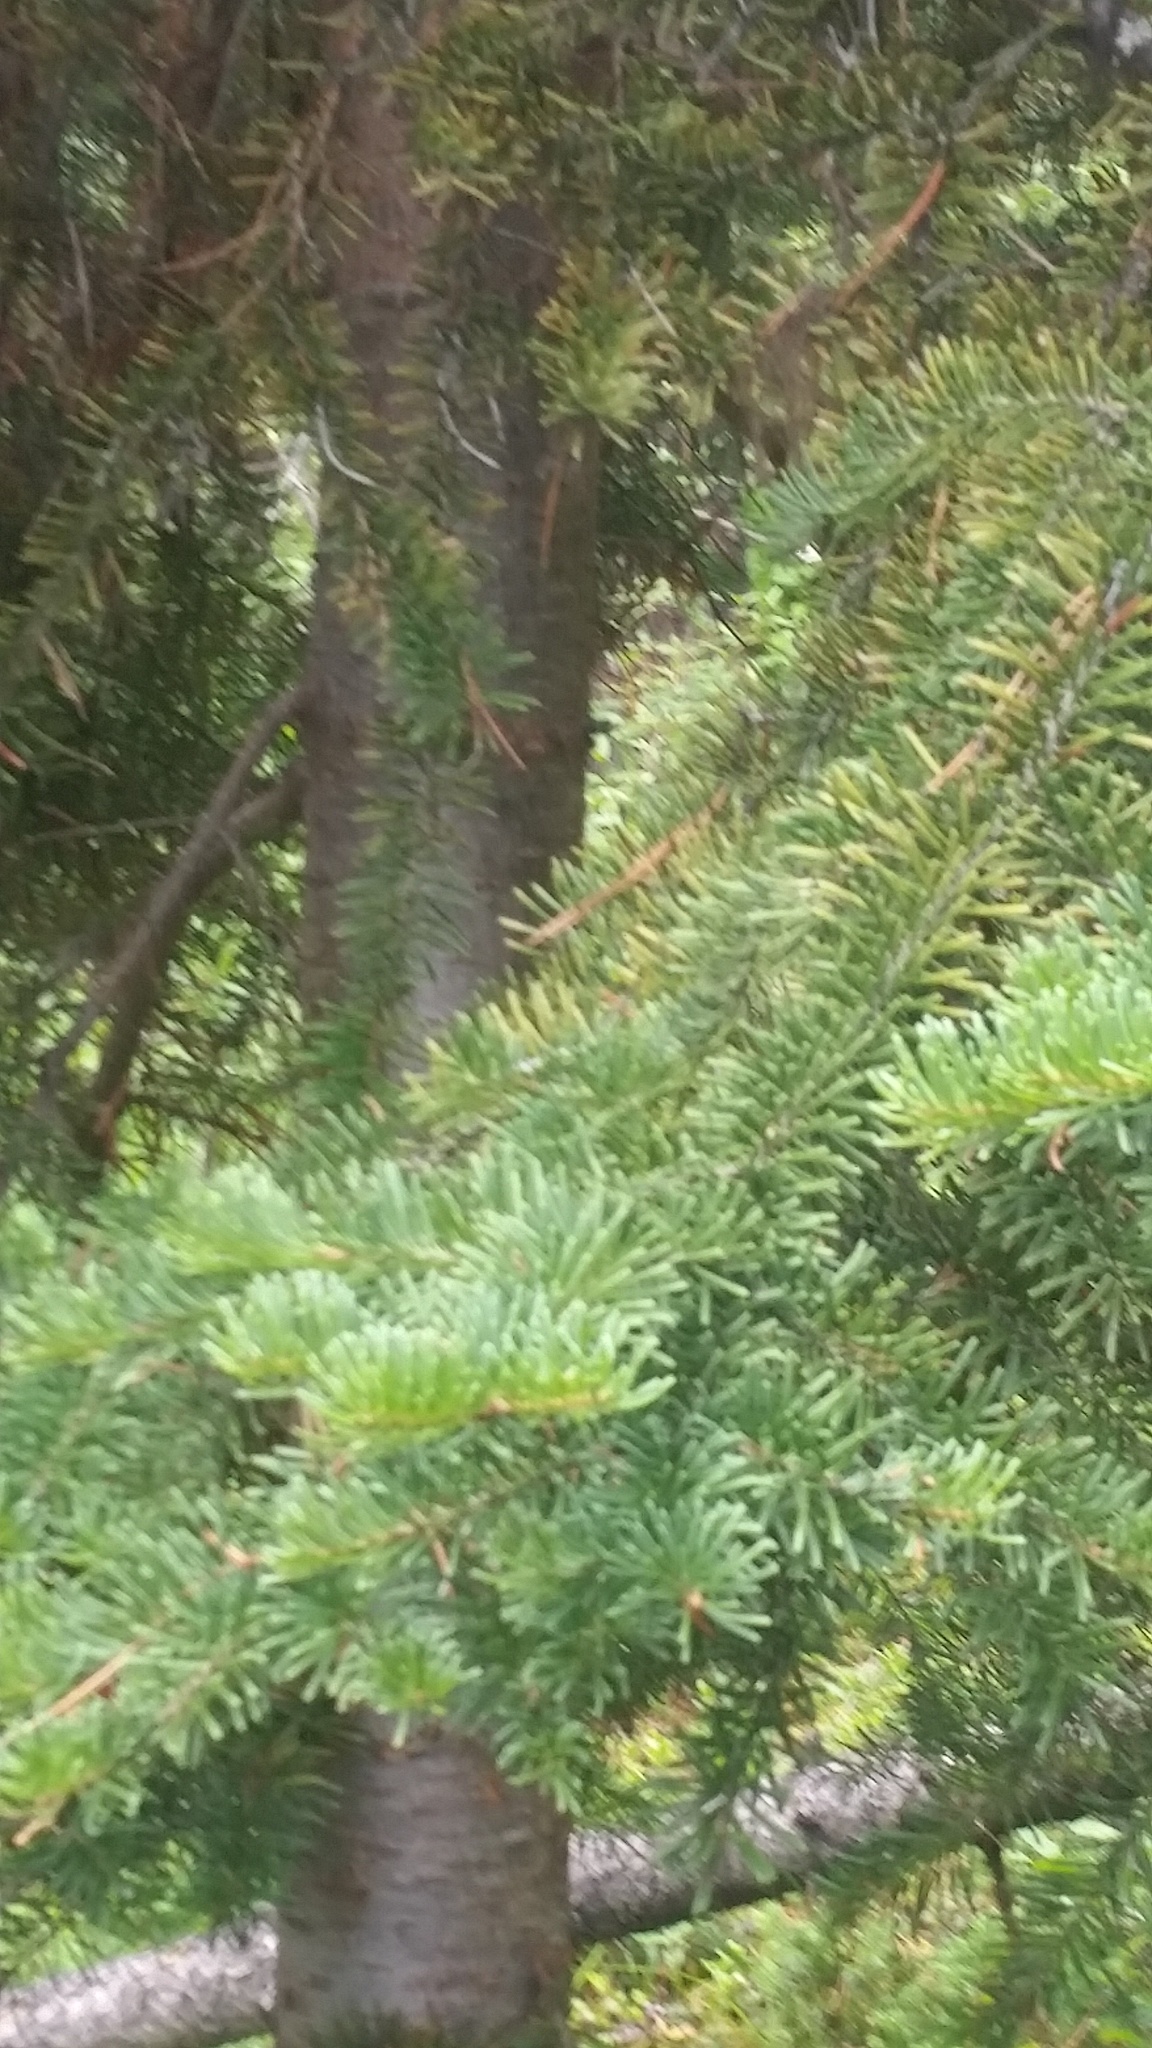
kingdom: Plantae
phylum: Tracheophyta
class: Pinopsida
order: Pinales
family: Pinaceae
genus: Abies
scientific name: Abies lasiocarpa
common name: Subalpine fir
